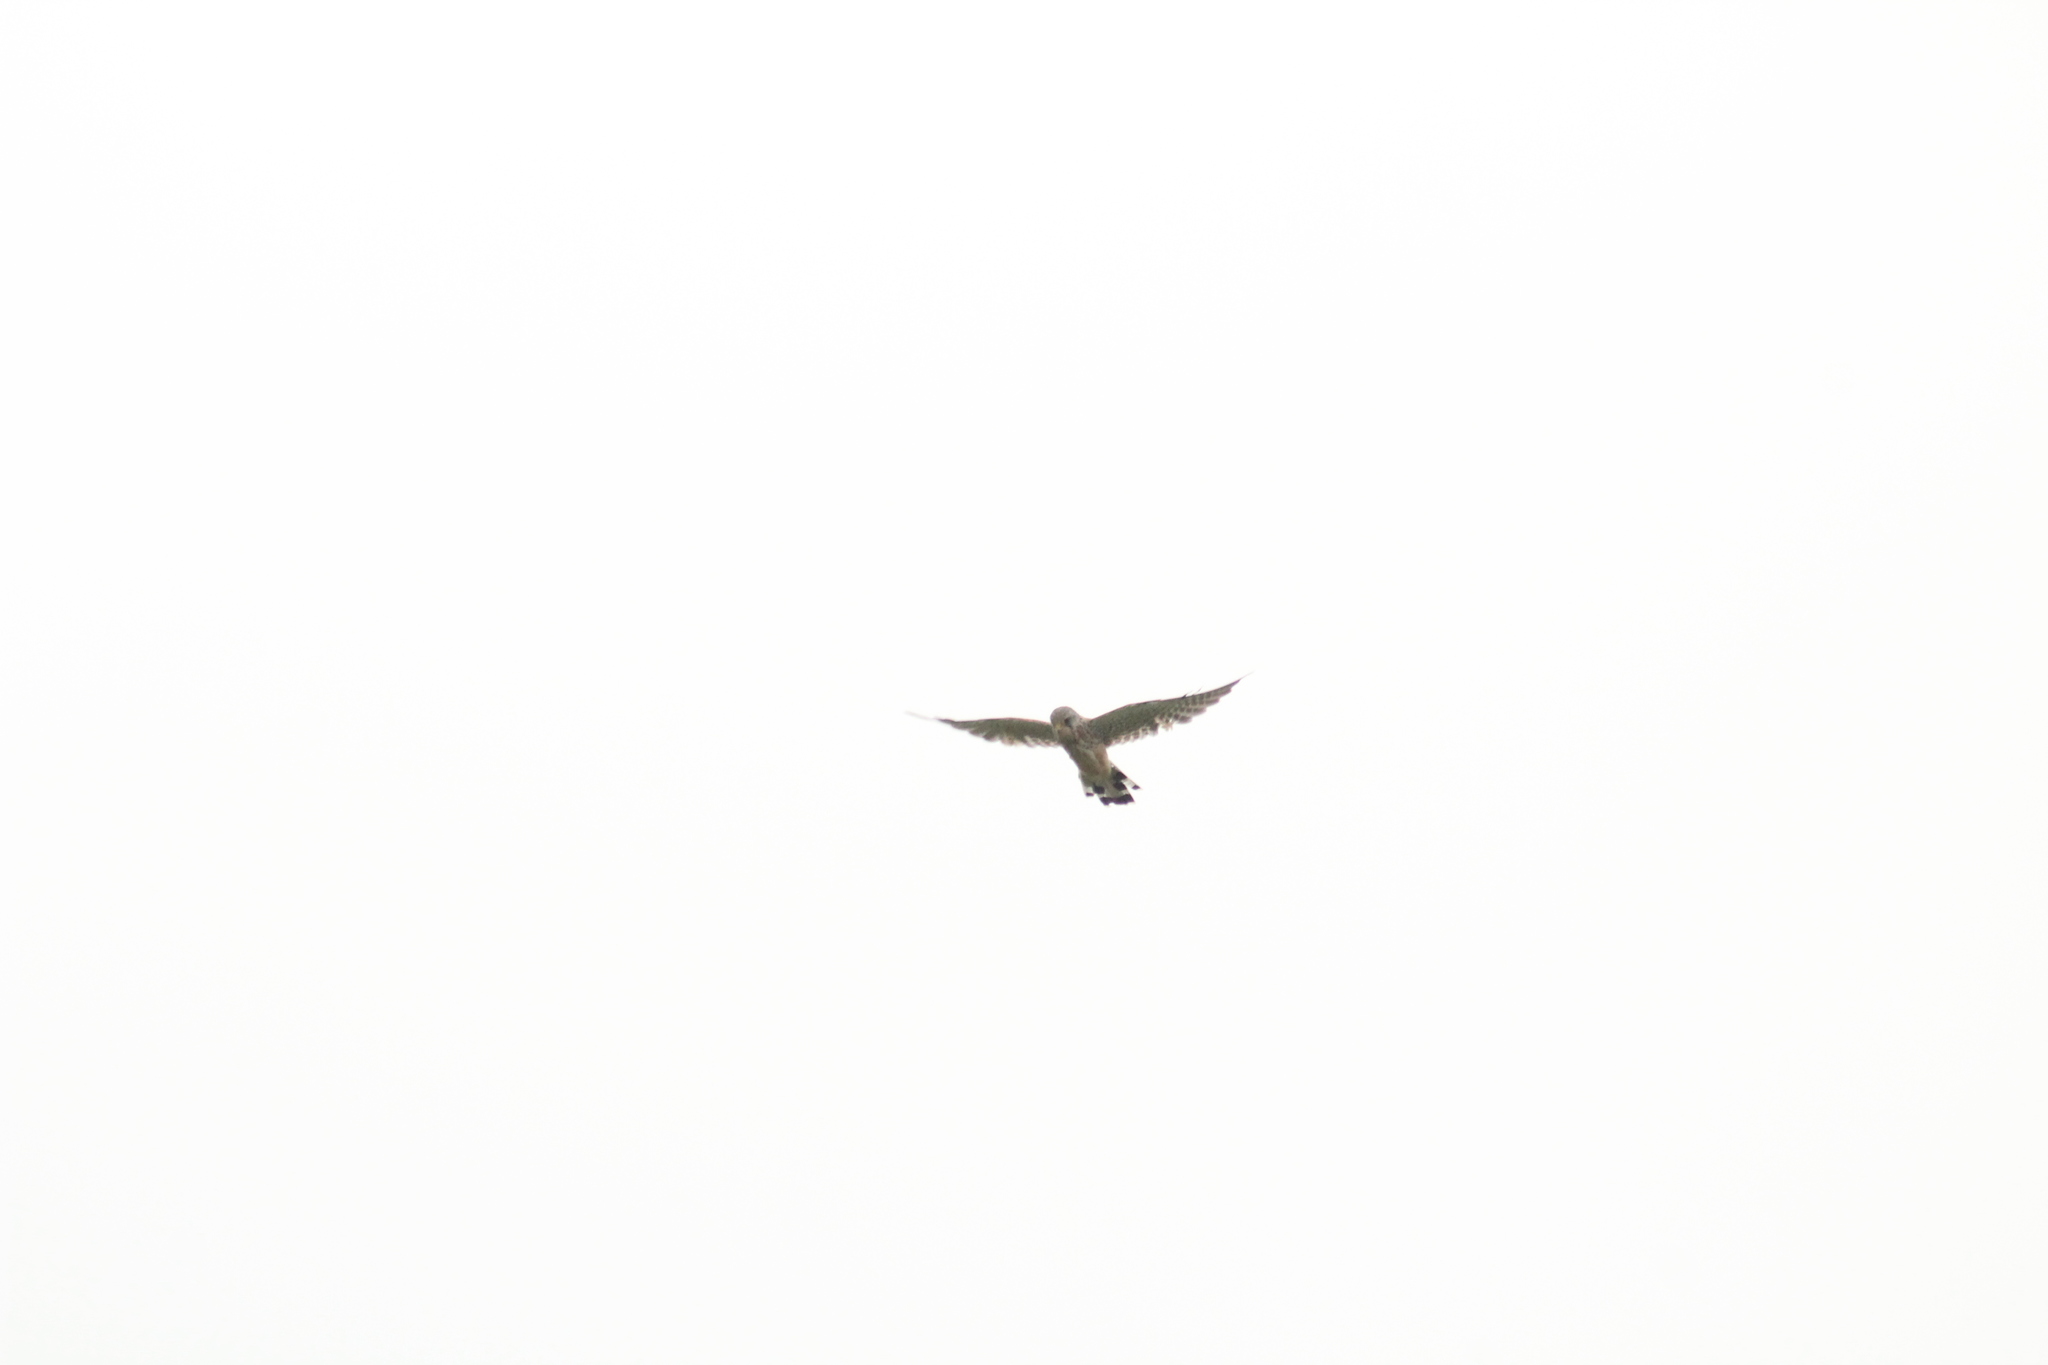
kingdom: Animalia
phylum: Chordata
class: Aves
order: Falconiformes
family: Falconidae
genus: Falco
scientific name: Falco tinnunculus
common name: Common kestrel
